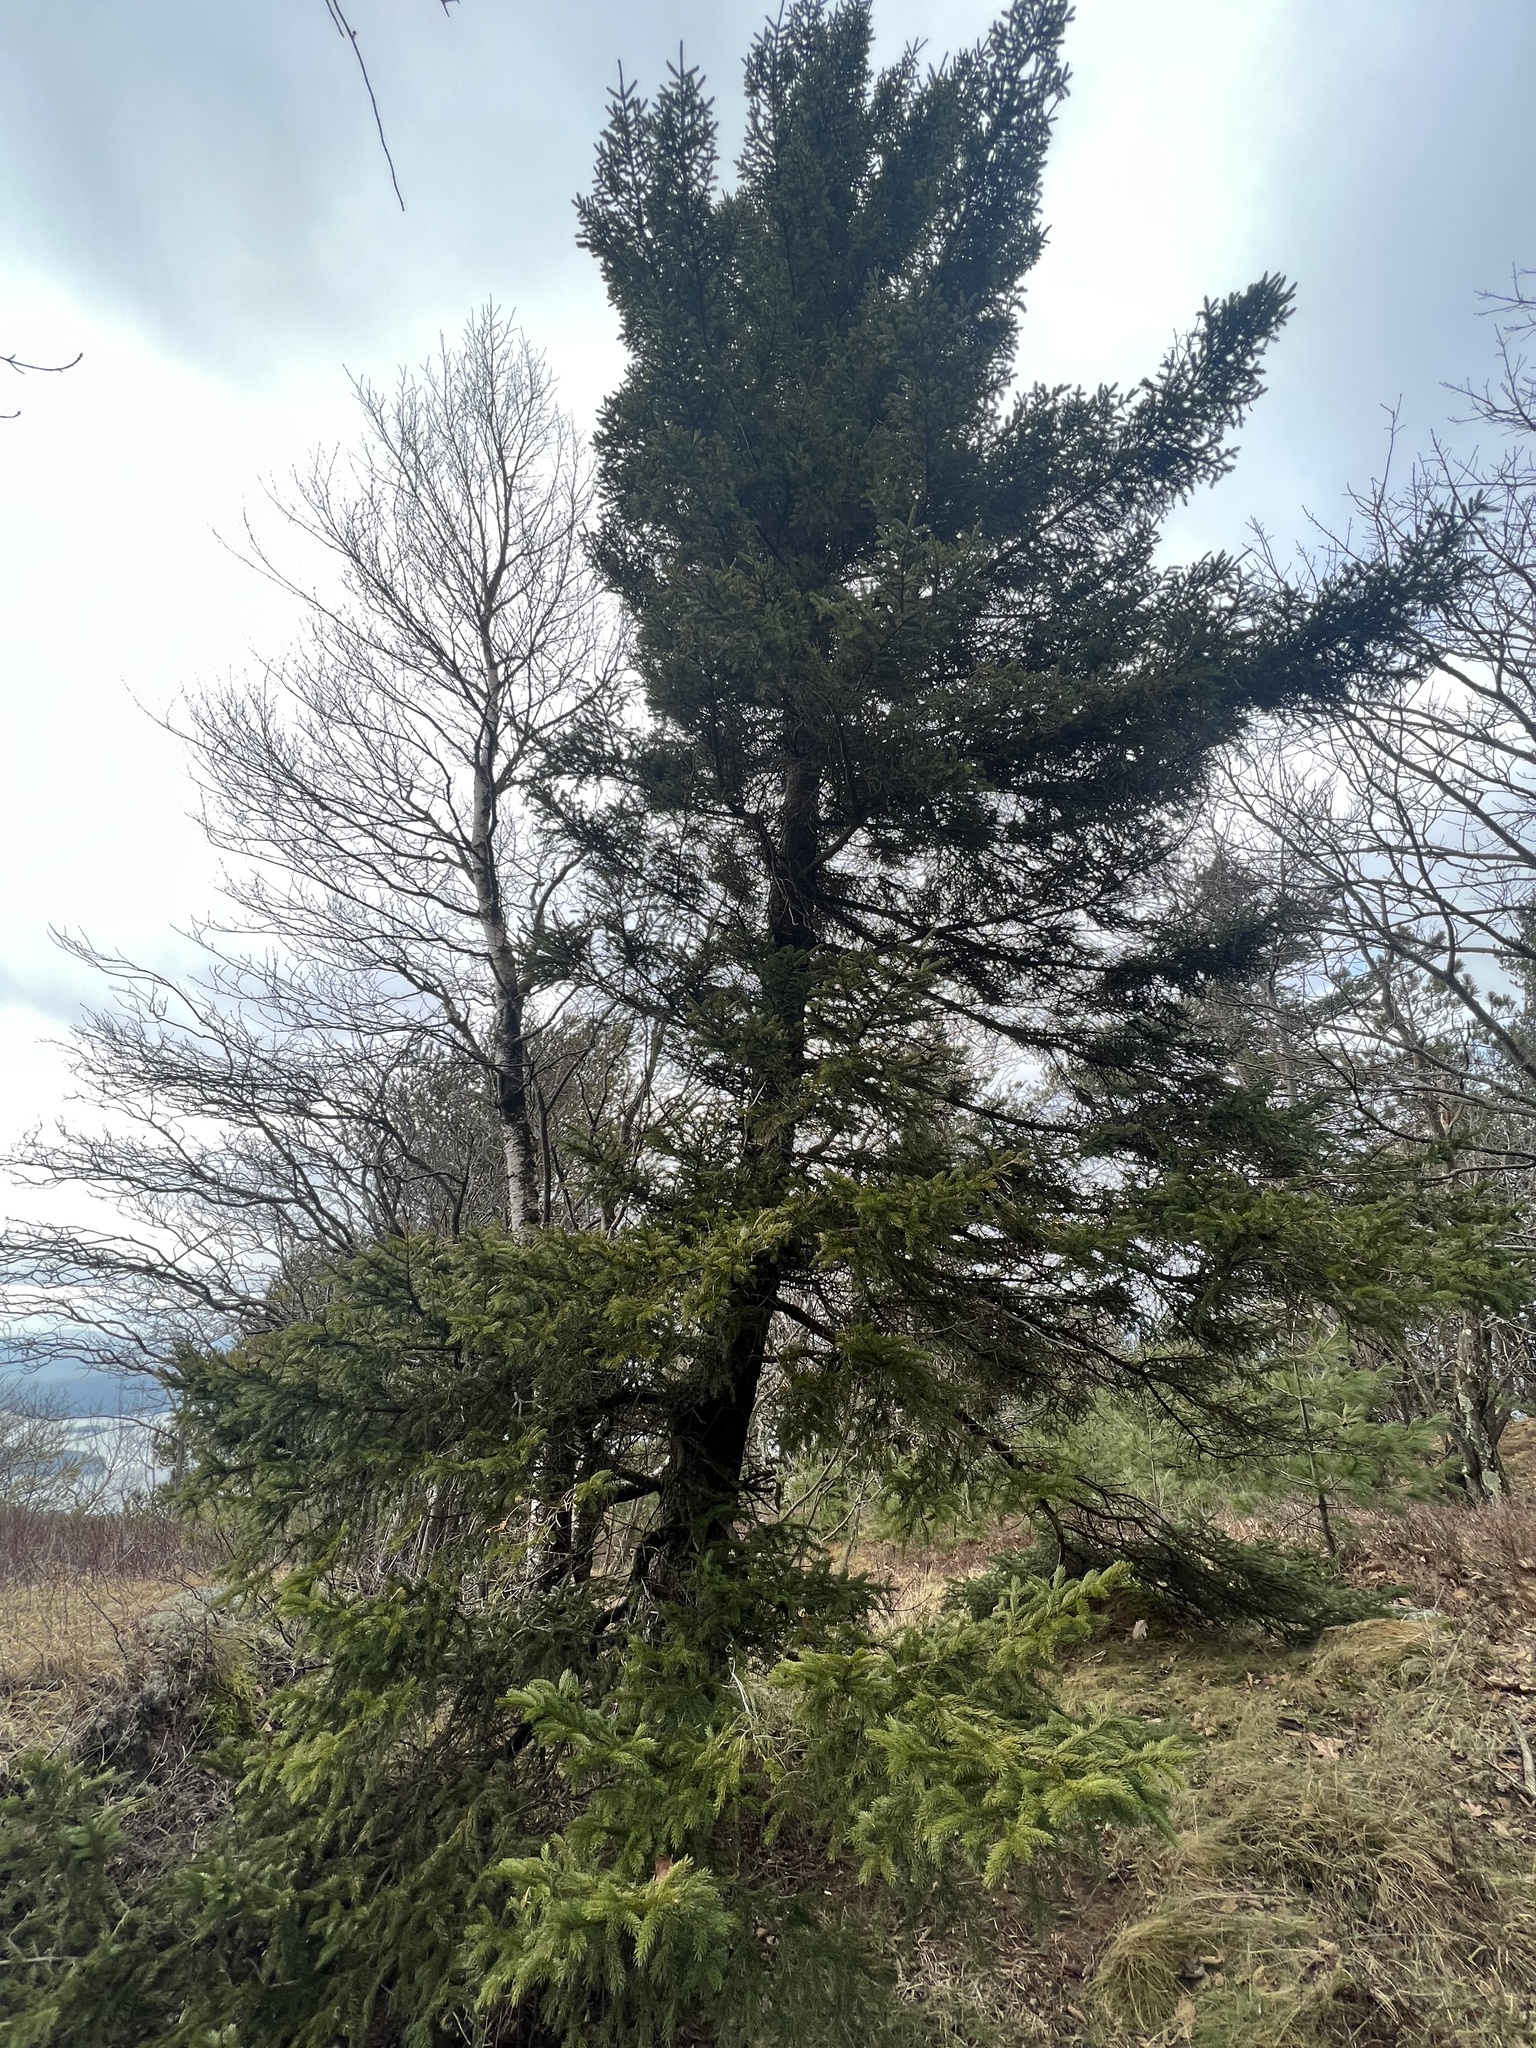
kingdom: Plantae
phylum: Tracheophyta
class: Pinopsida
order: Pinales
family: Pinaceae
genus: Picea
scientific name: Picea rubens
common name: Red spruce
